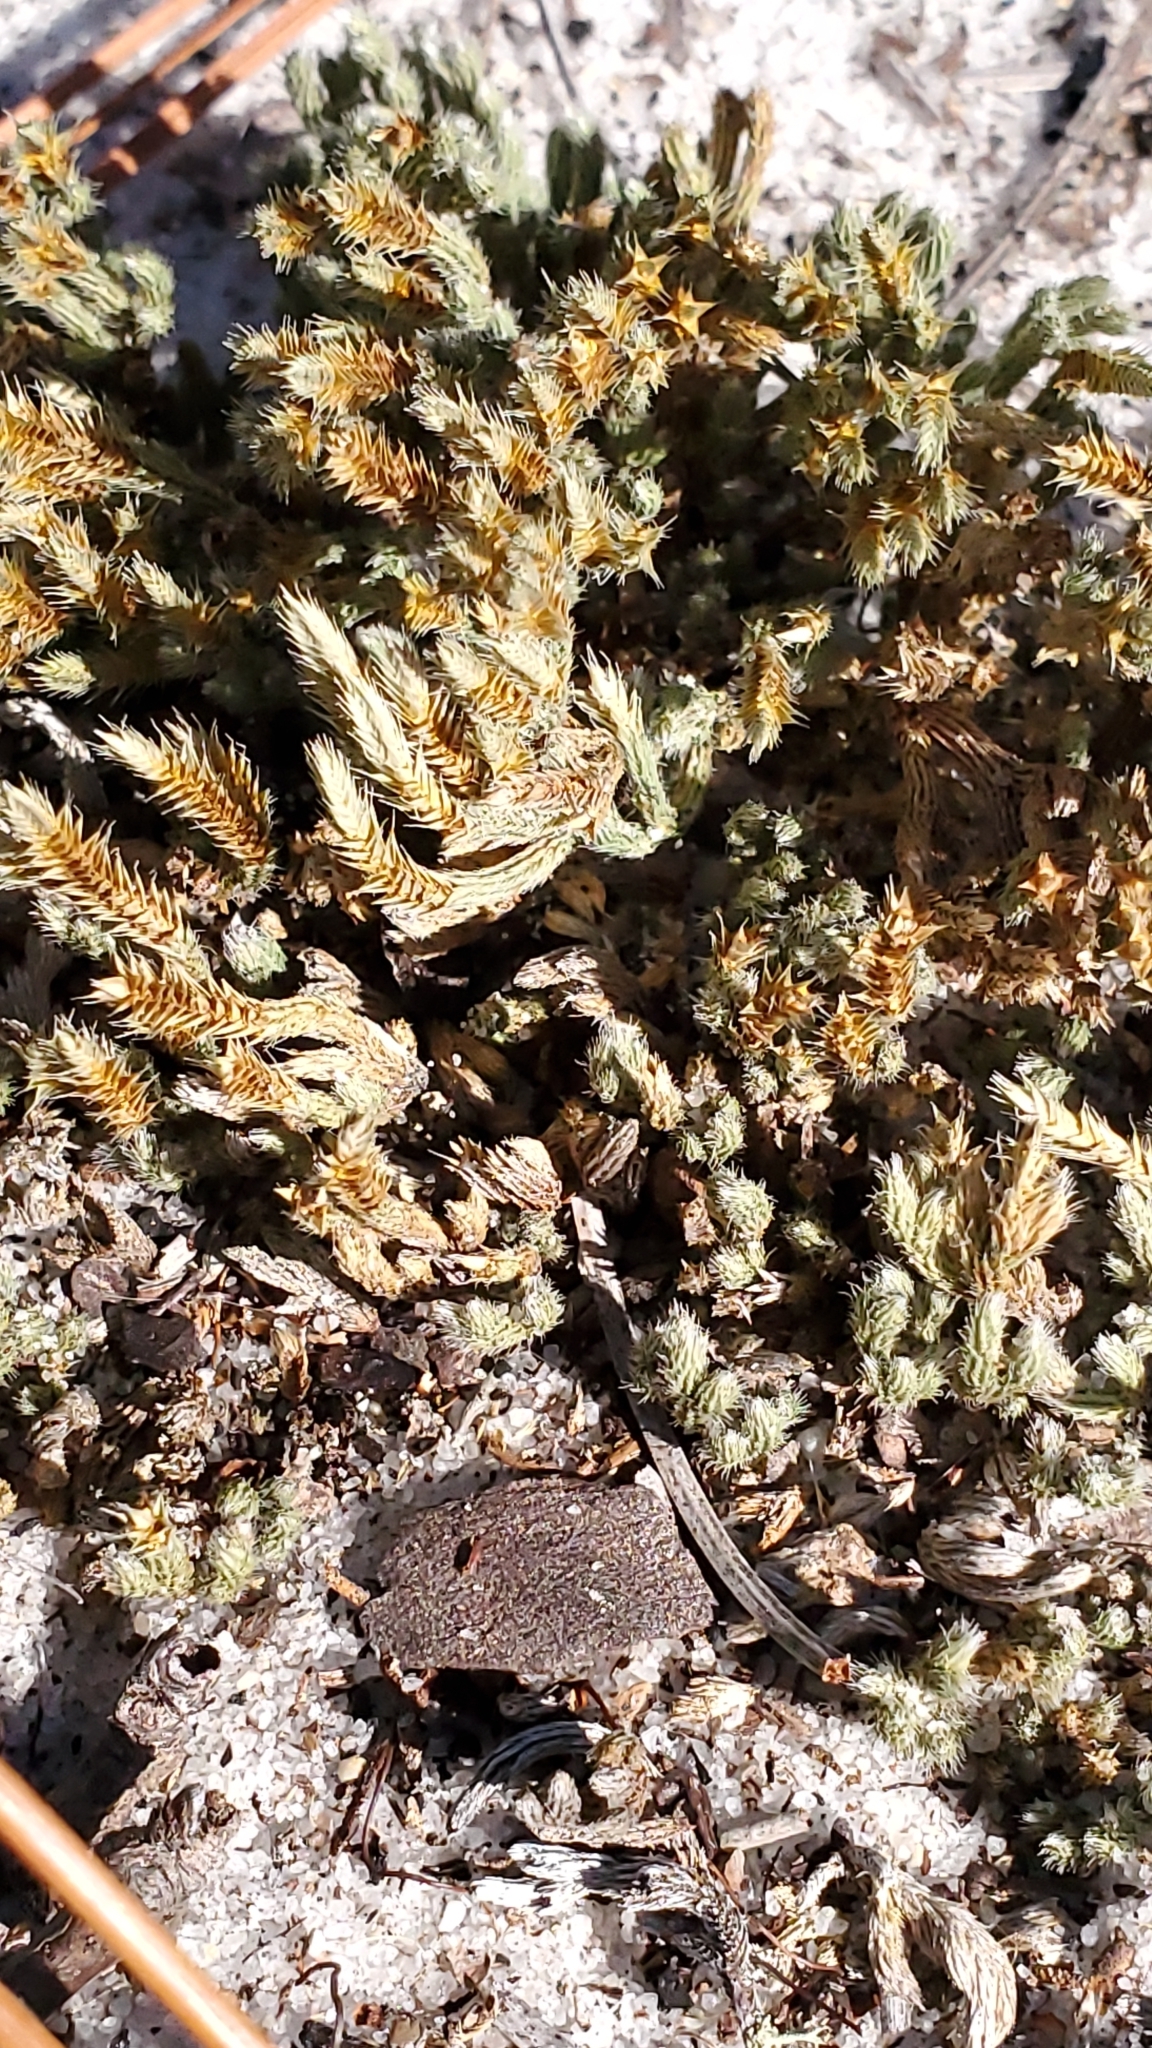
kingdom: Plantae
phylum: Tracheophyta
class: Lycopodiopsida
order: Selaginellales
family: Selaginellaceae
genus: Selaginella
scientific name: Selaginella acanthonota
